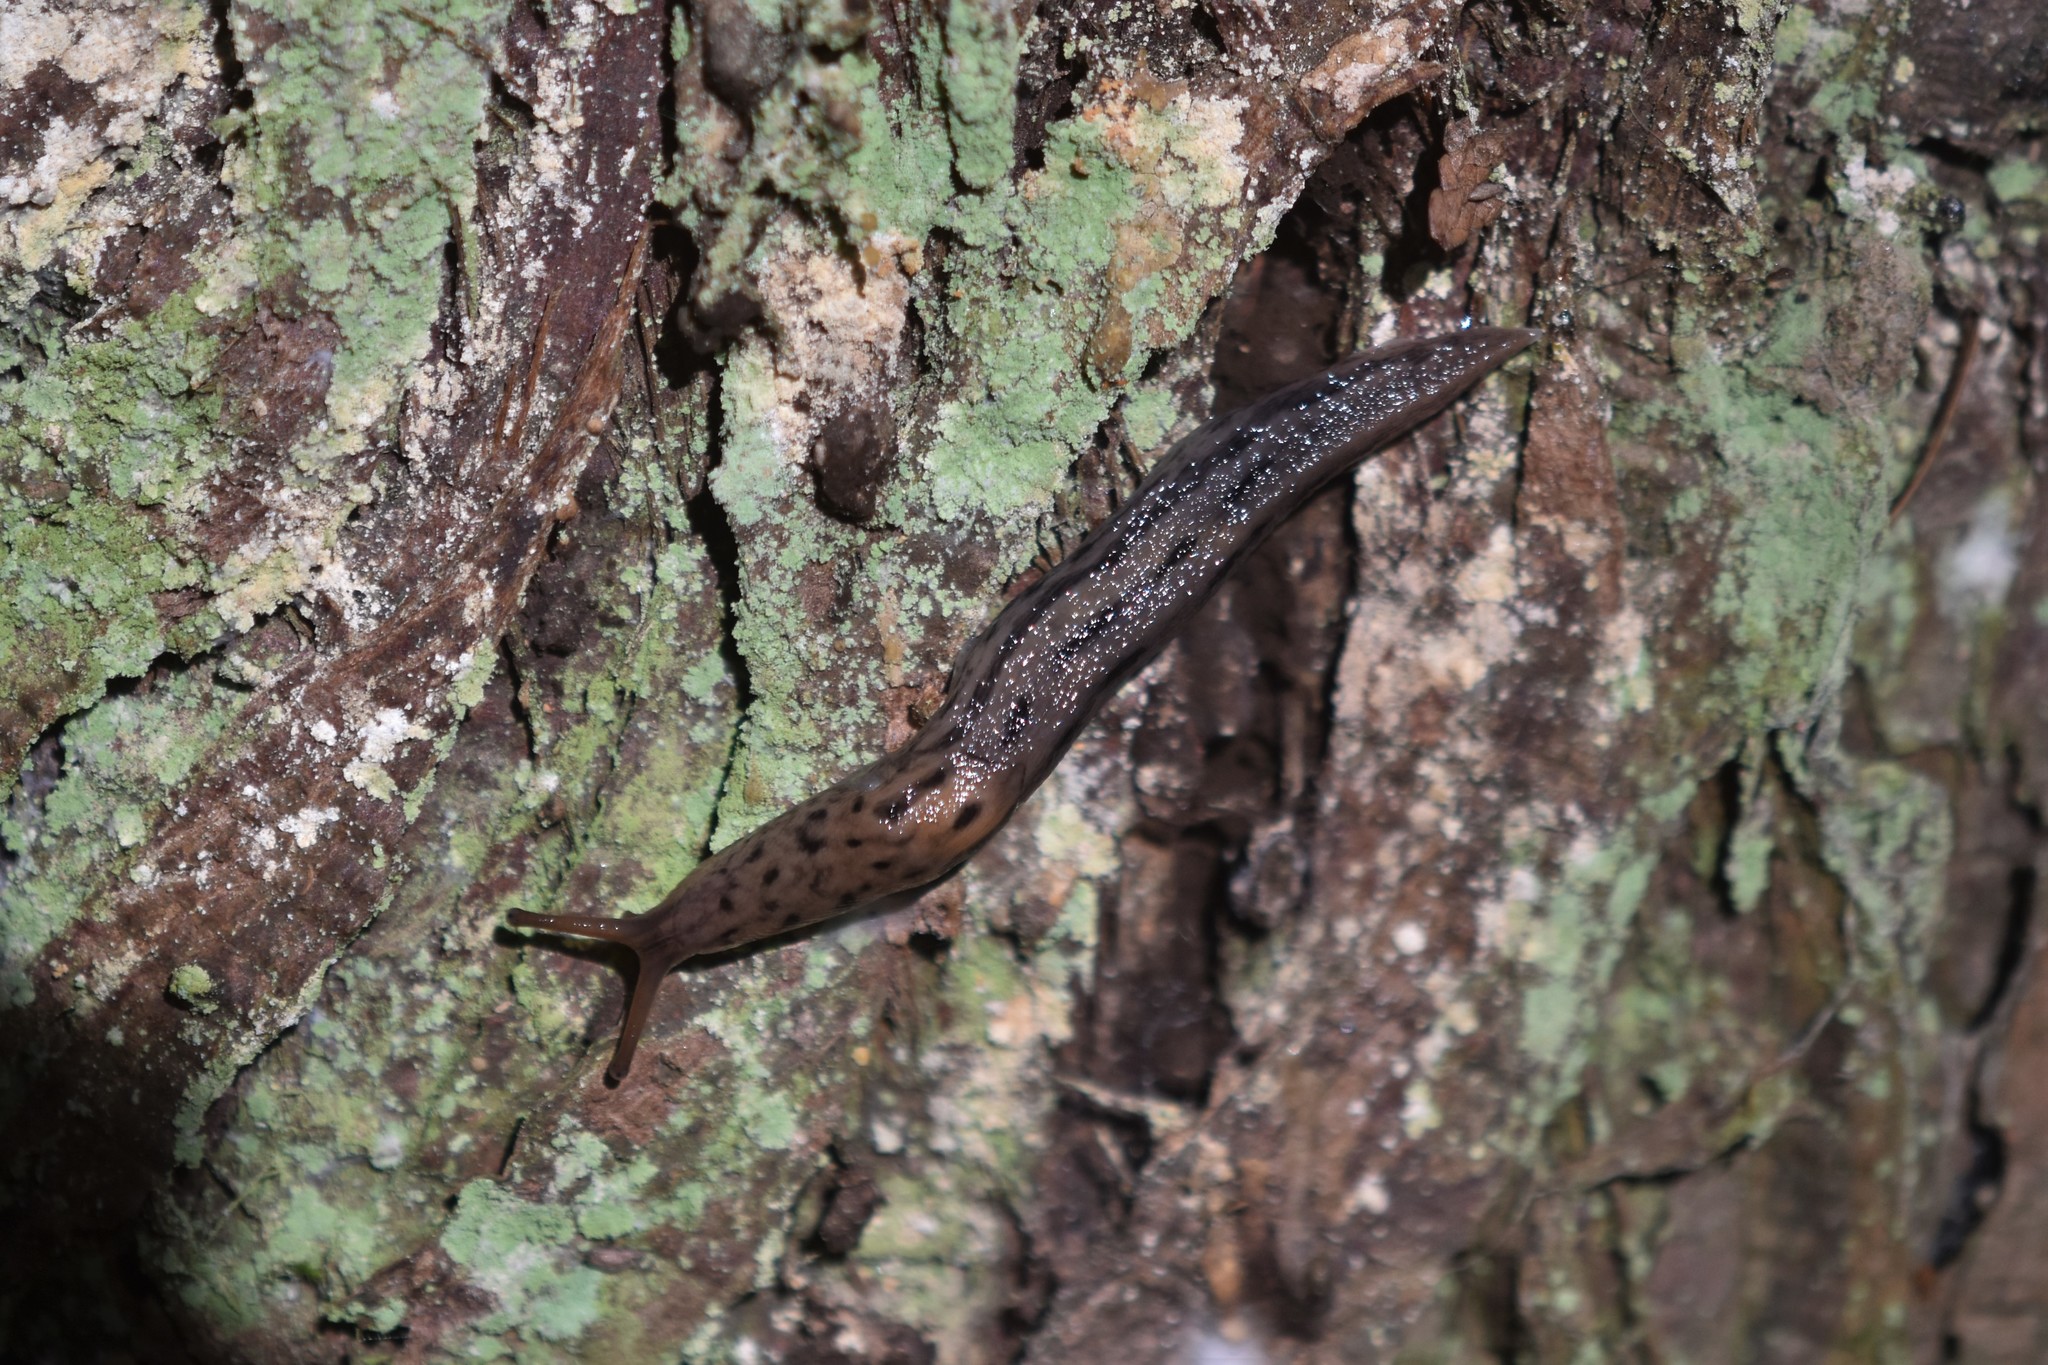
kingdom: Animalia
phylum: Mollusca
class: Gastropoda
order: Stylommatophora
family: Limacidae
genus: Limax
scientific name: Limax maximus
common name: Great grey slug
